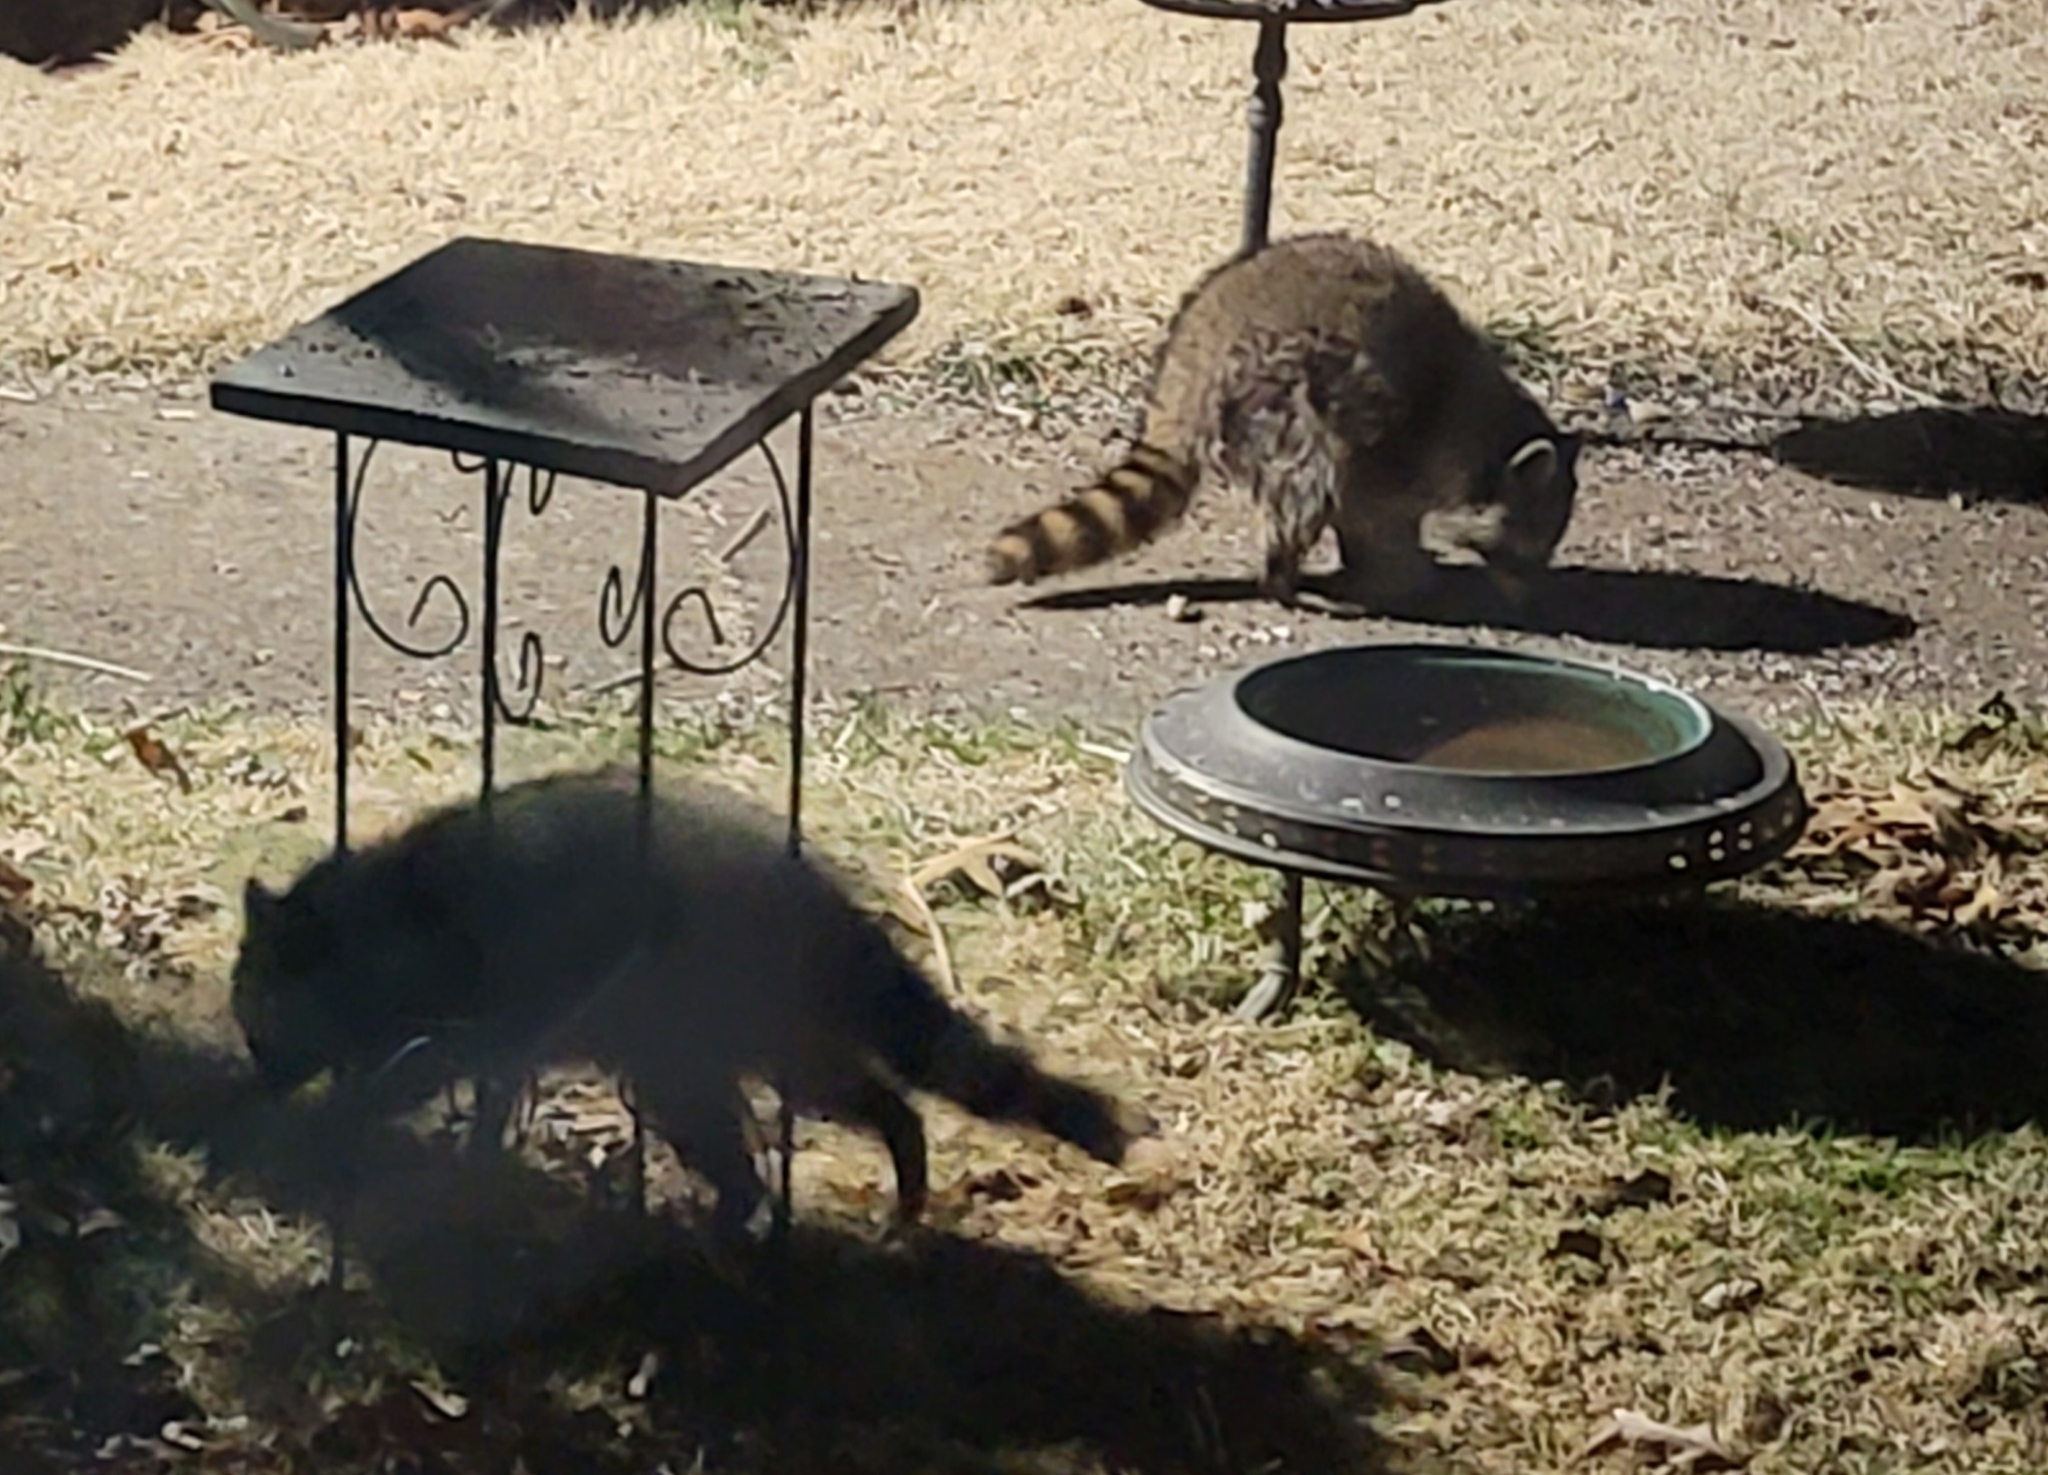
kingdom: Animalia
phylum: Chordata
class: Mammalia
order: Carnivora
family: Procyonidae
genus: Procyon
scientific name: Procyon lotor
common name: Raccoon
